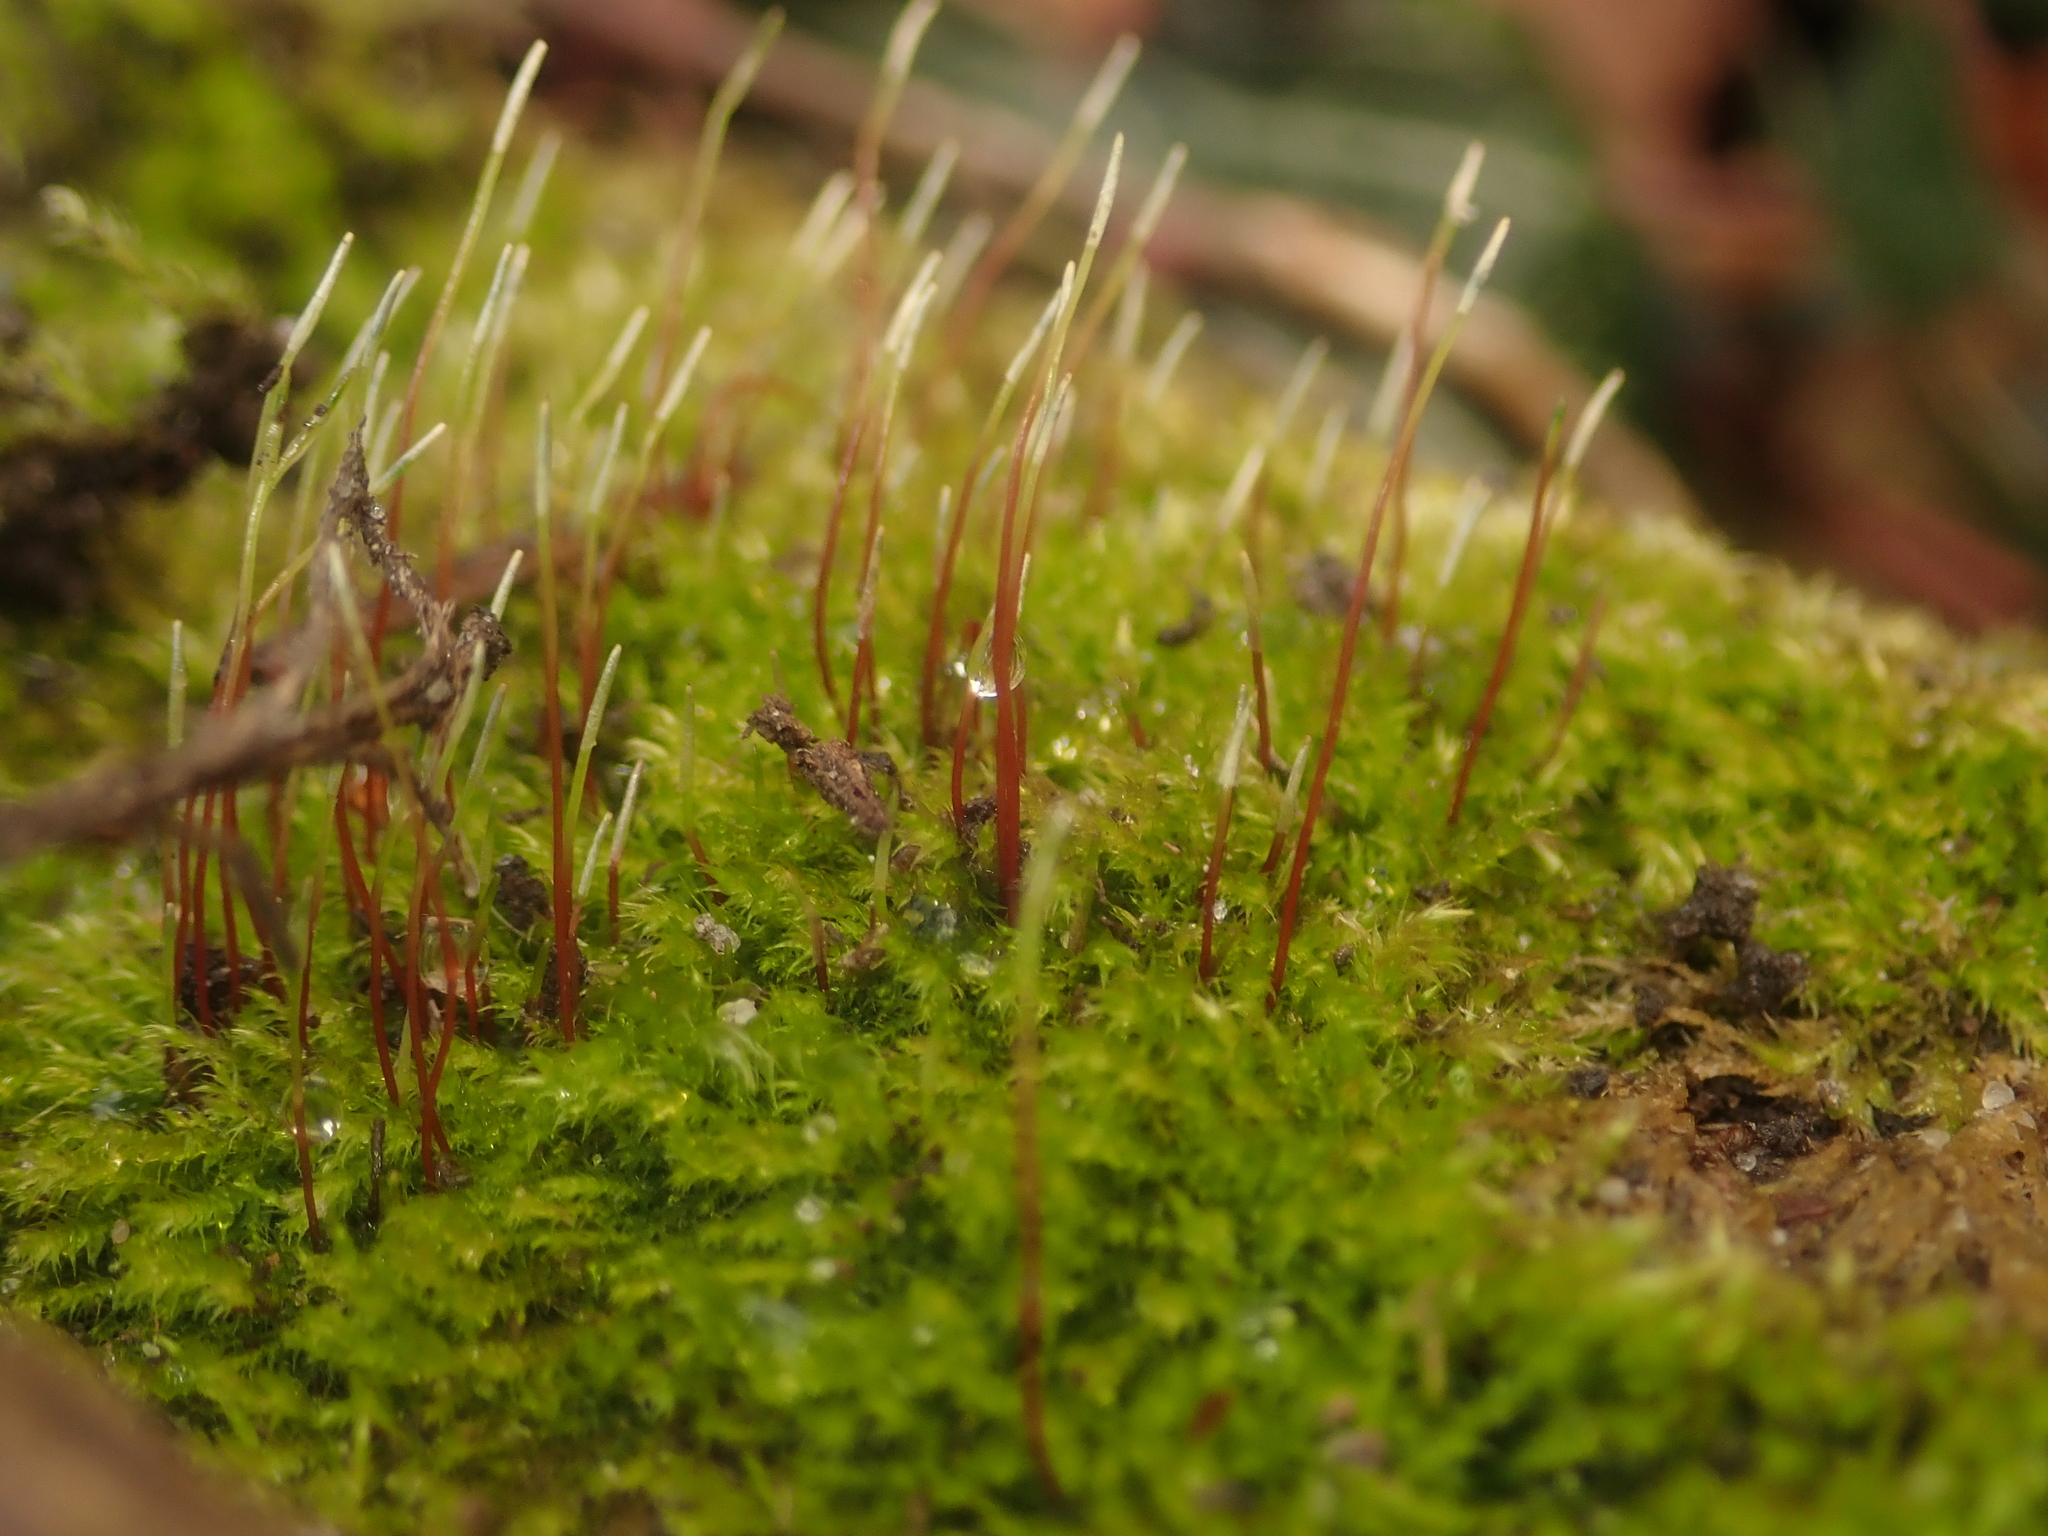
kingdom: Plantae
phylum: Bryophyta
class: Bryopsida
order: Hypnales
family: Amblystegiaceae
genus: Amblystegium
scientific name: Amblystegium serpens
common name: Jurkatzka's feather moss
